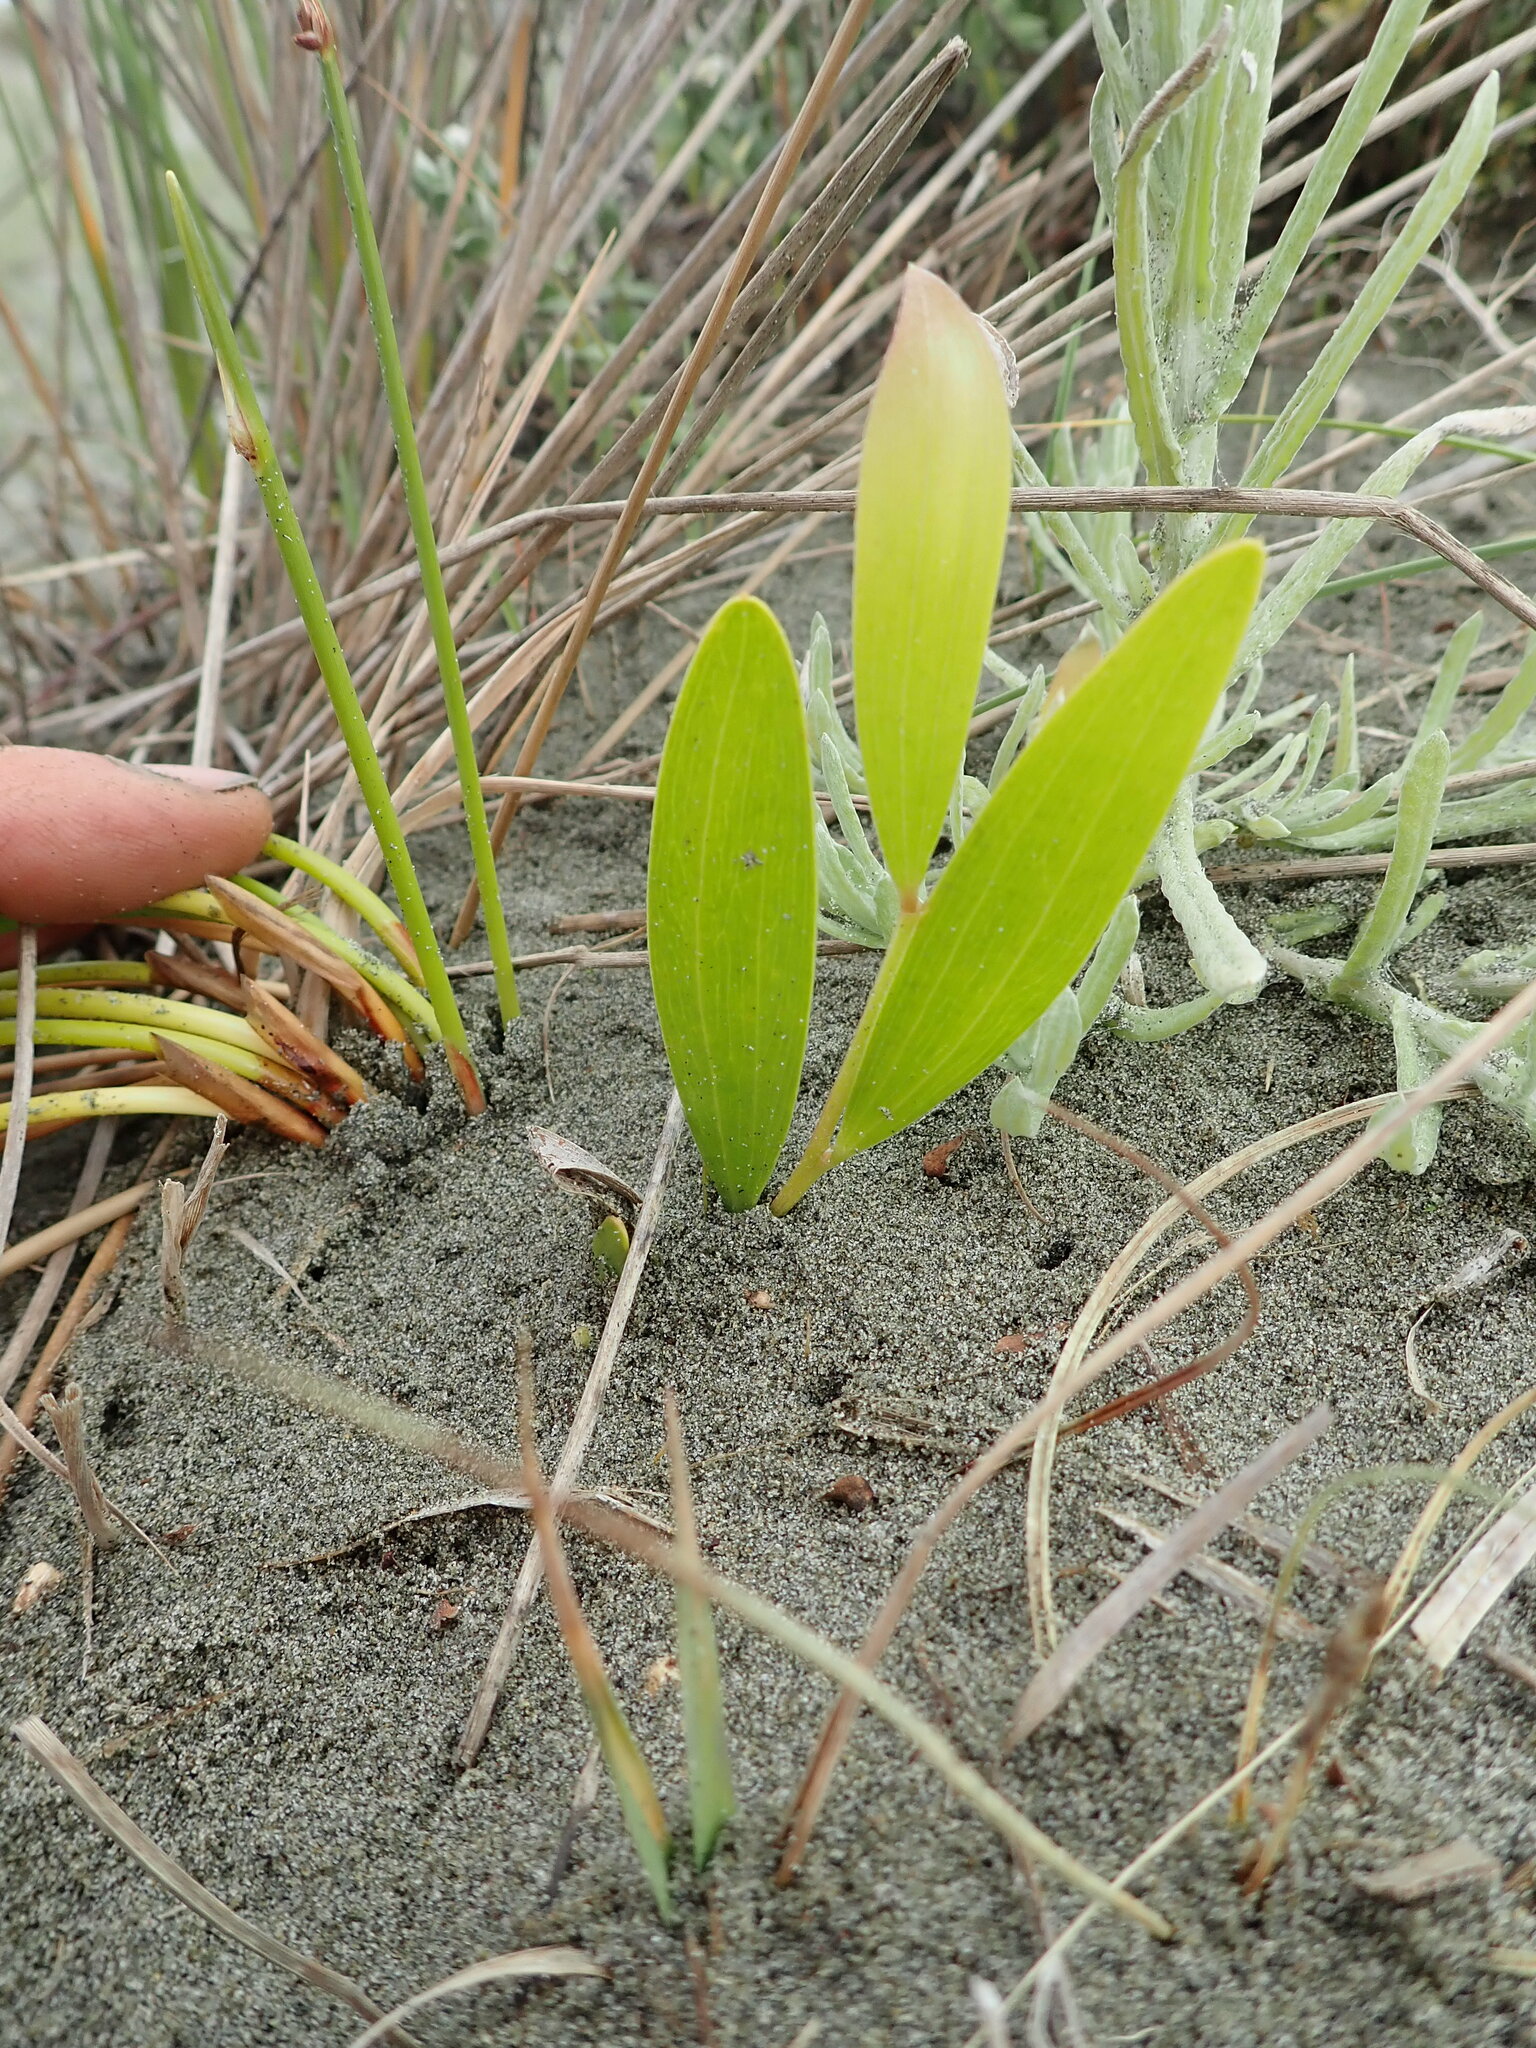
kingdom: Plantae
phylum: Tracheophyta
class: Magnoliopsida
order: Fabales
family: Fabaceae
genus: Acacia
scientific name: Acacia longifolia
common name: Sydney golden wattle
